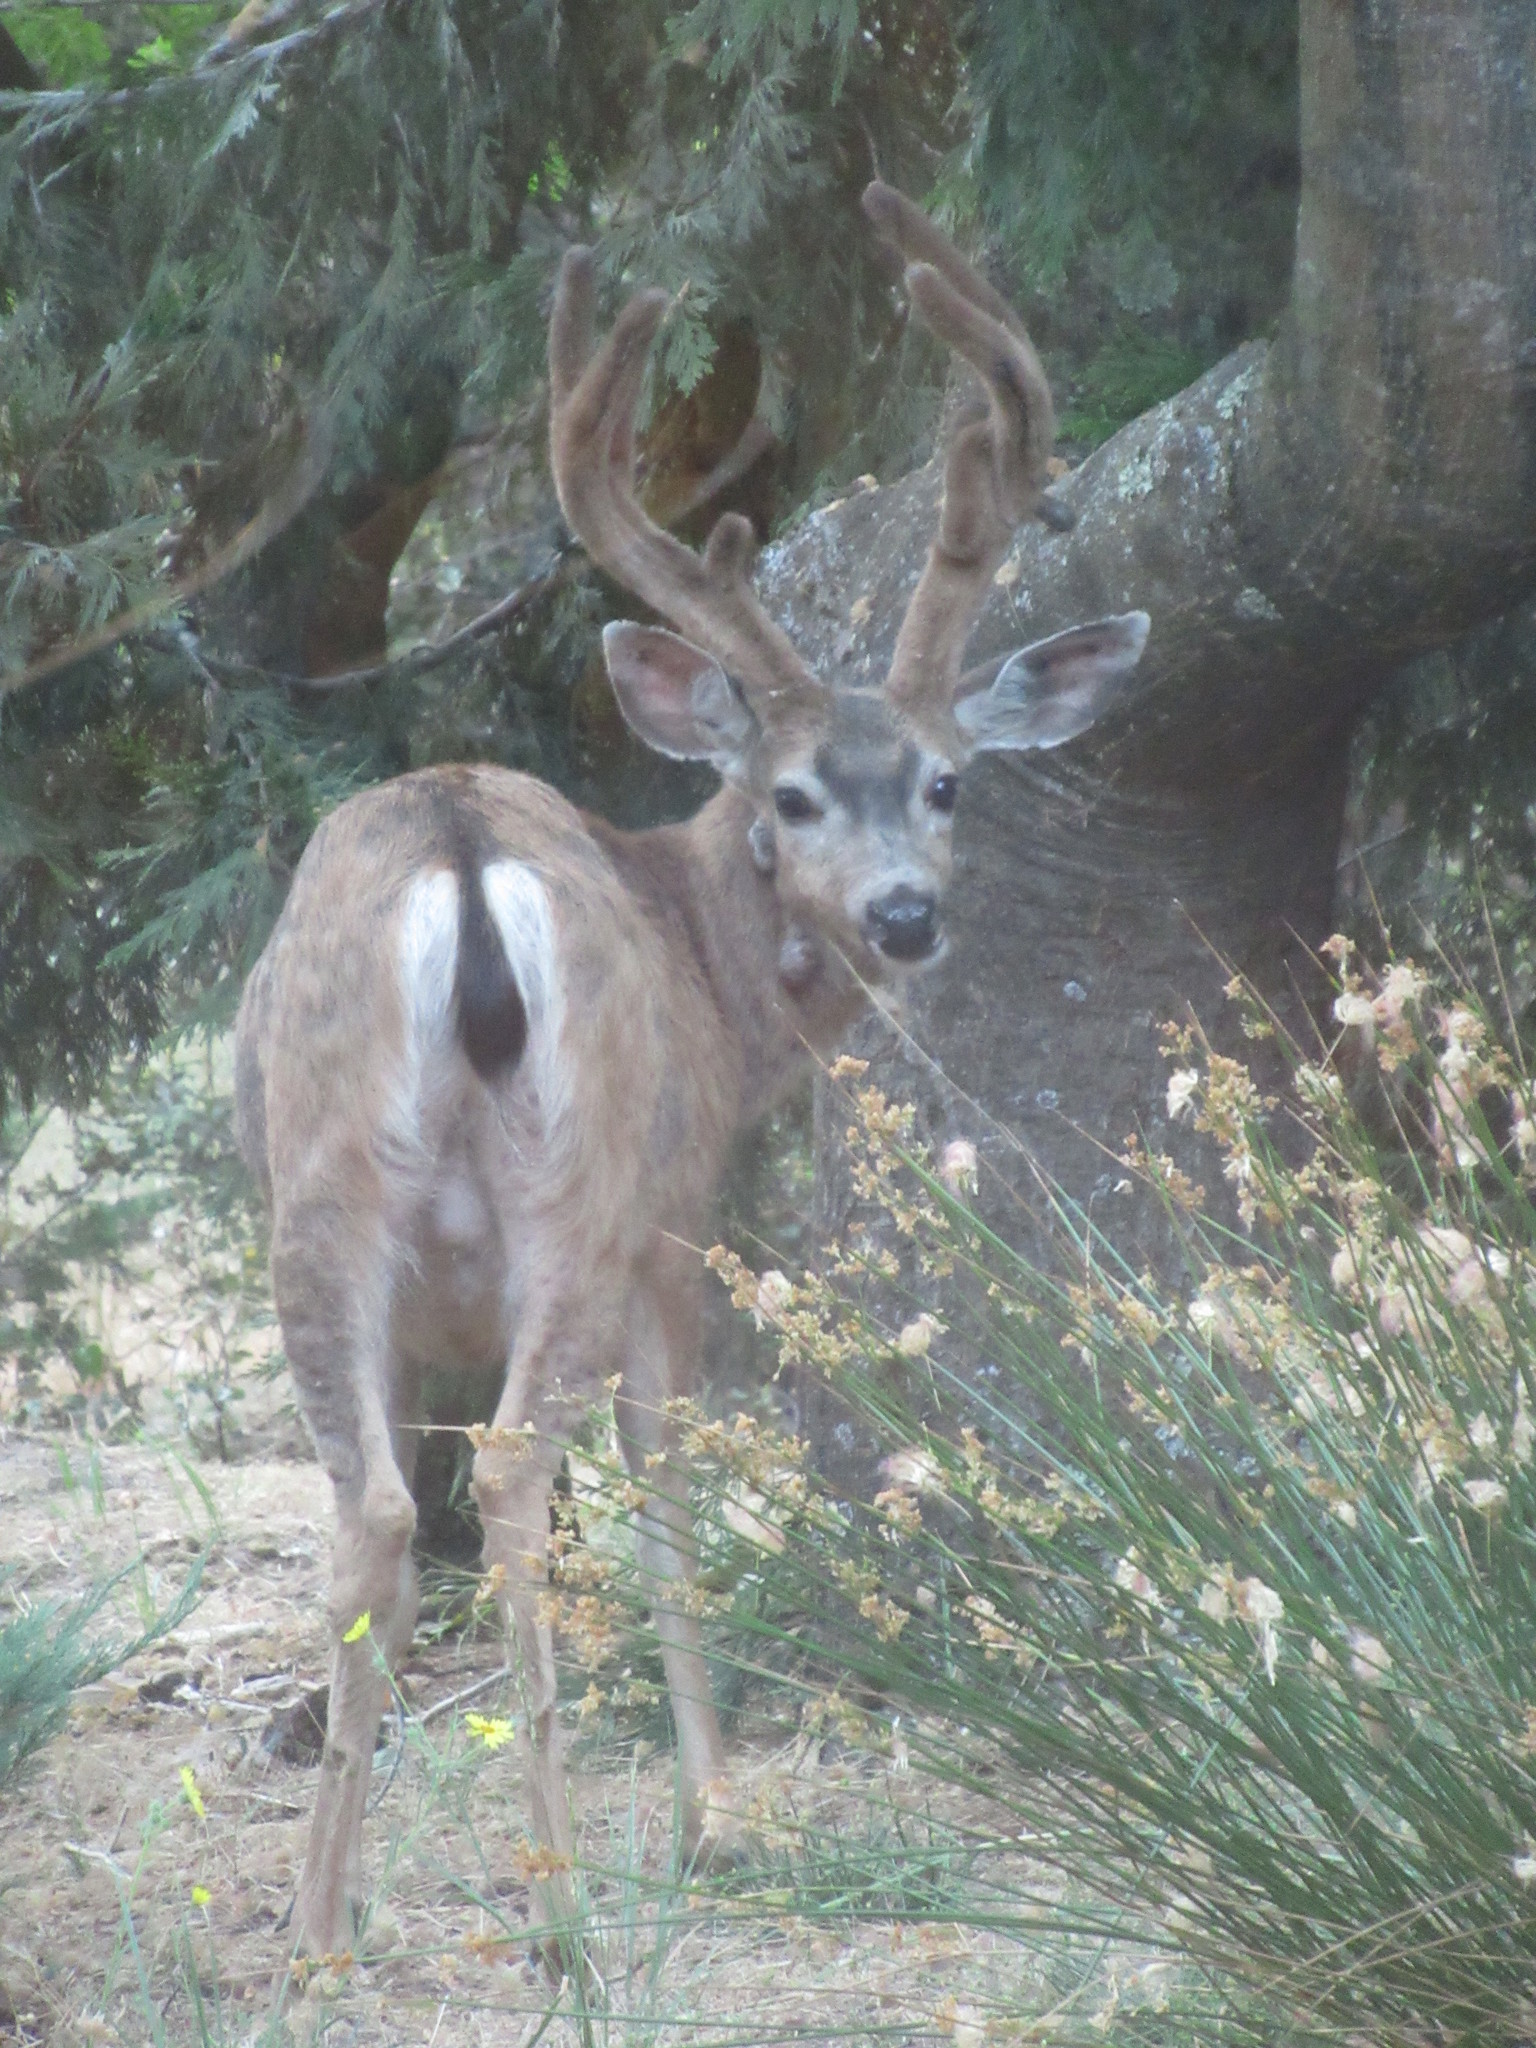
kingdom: Animalia
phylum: Chordata
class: Mammalia
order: Artiodactyla
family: Cervidae
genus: Odocoileus
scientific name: Odocoileus hemionus
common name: Mule deer
